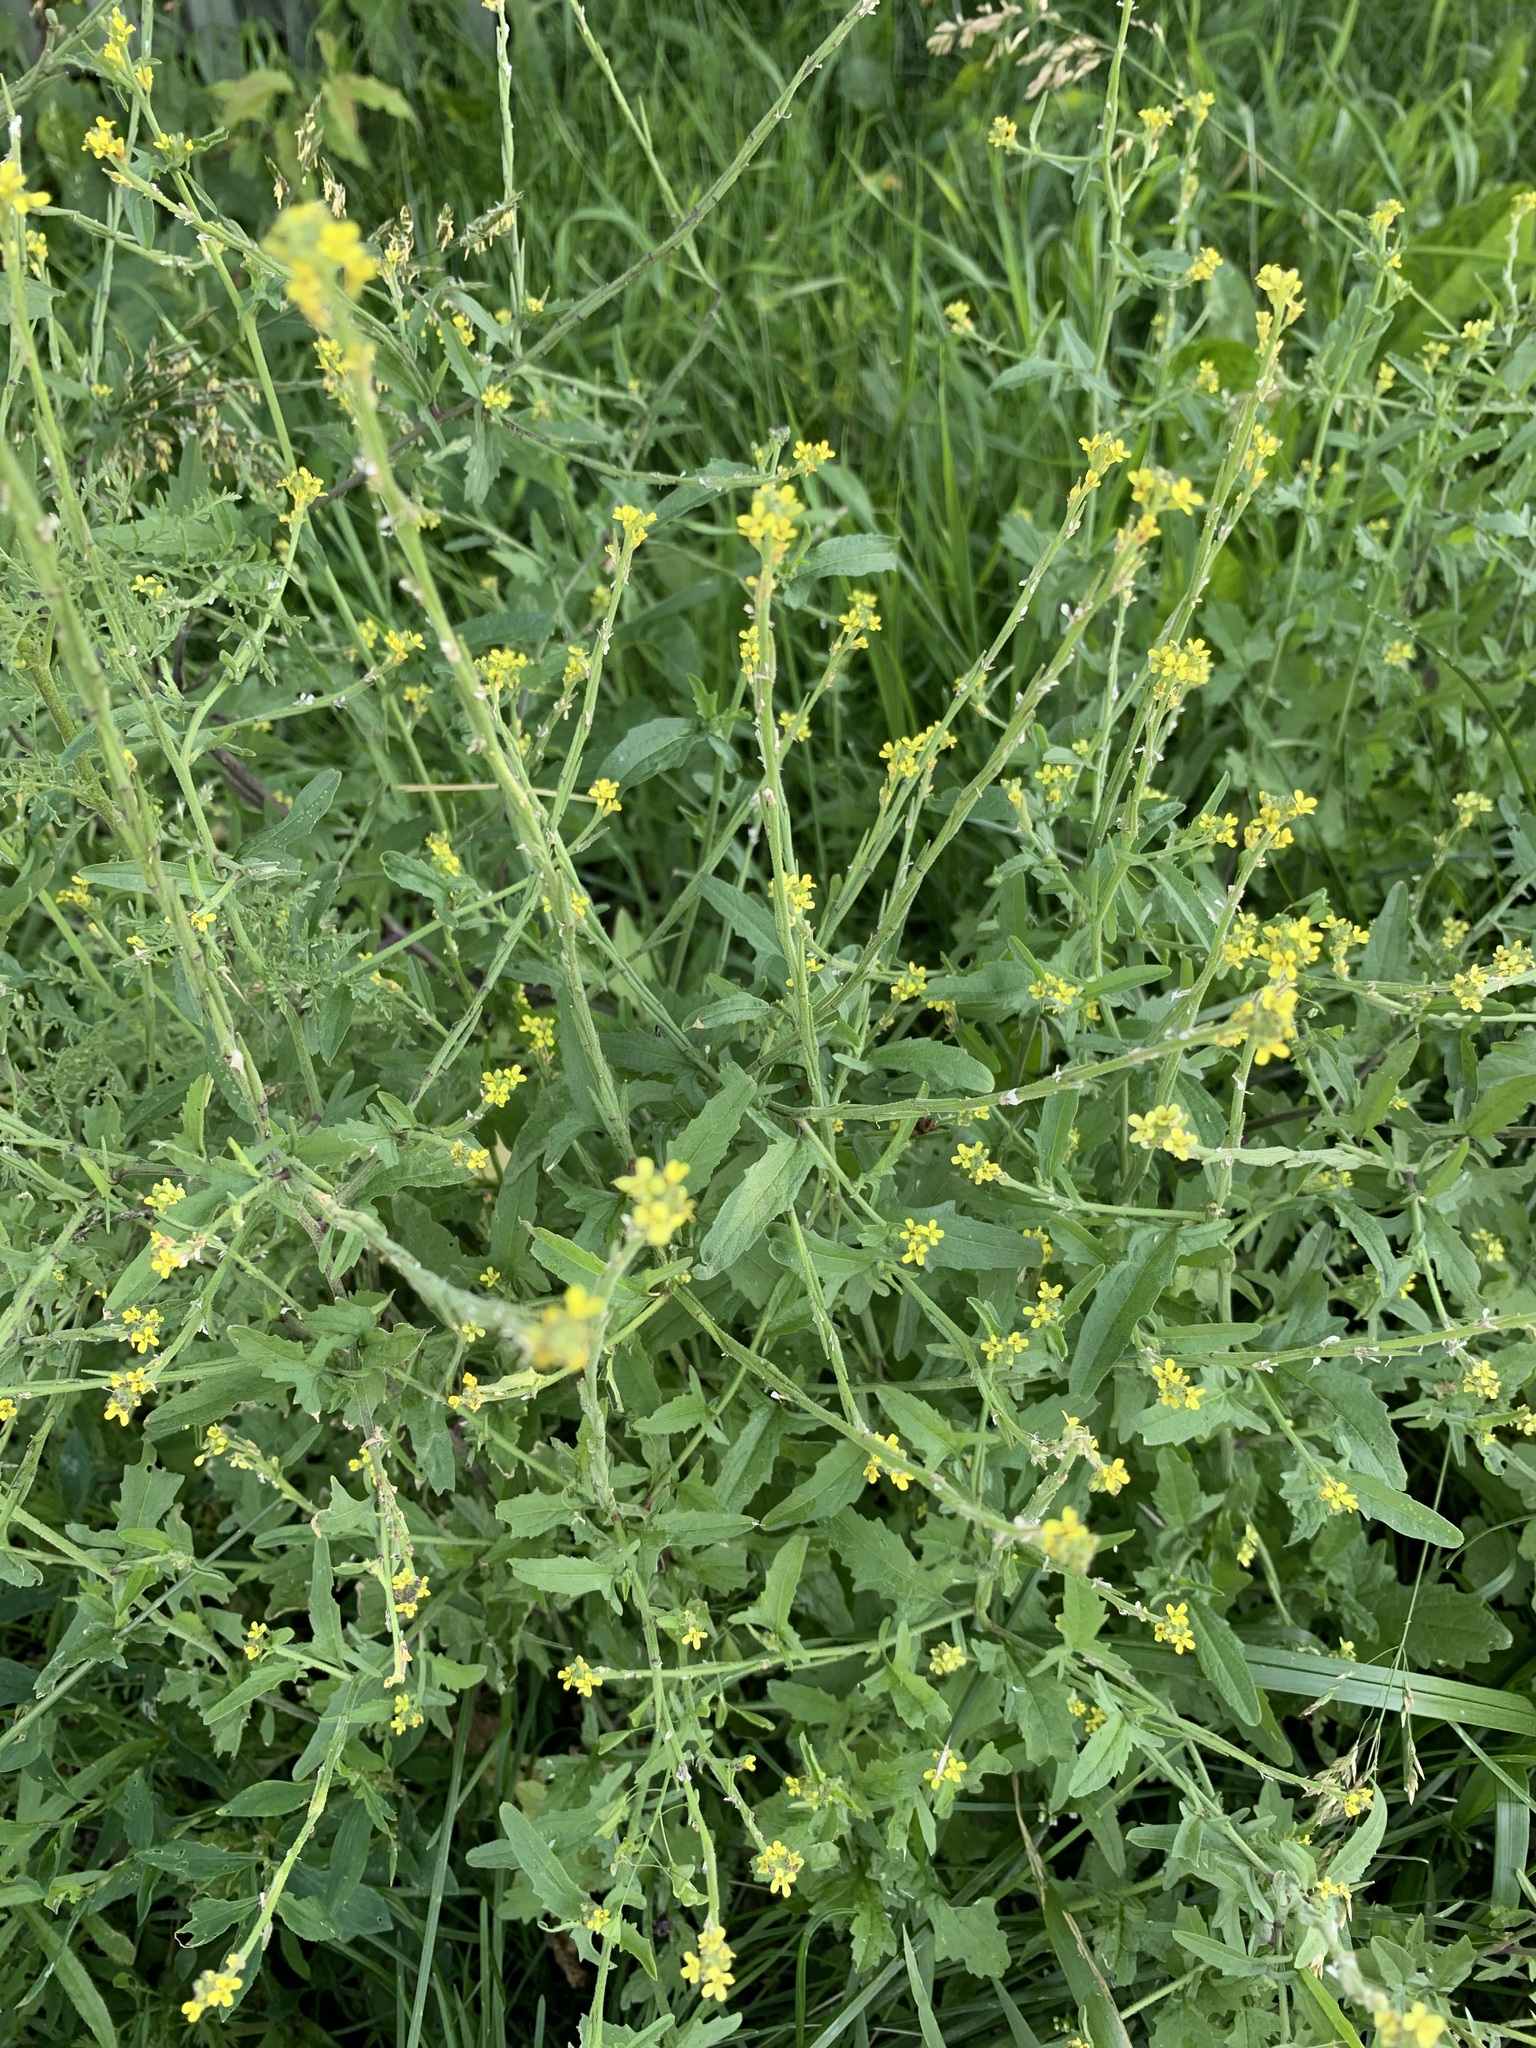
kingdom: Plantae
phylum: Tracheophyta
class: Magnoliopsida
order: Brassicales
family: Brassicaceae
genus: Sisymbrium
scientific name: Sisymbrium officinale
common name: Hedge mustard
